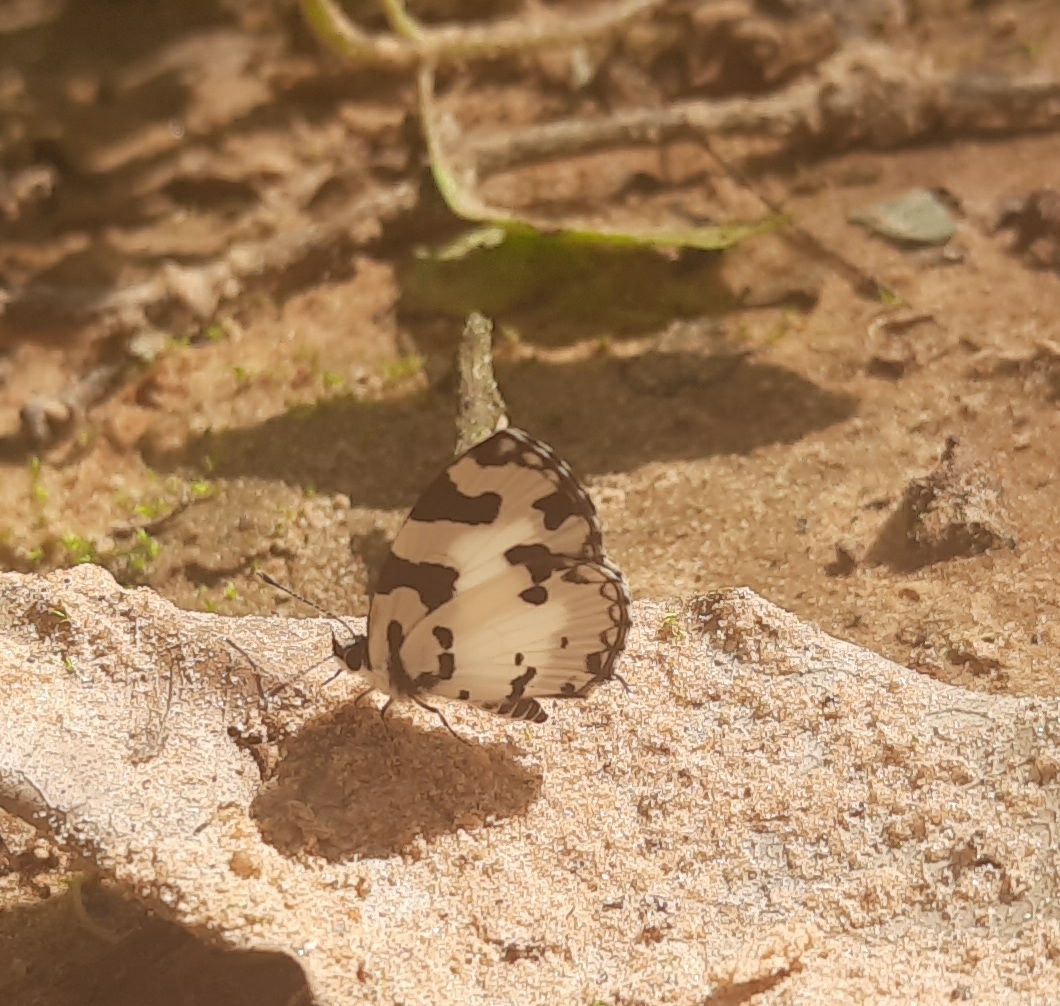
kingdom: Animalia
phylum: Arthropoda
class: Insecta
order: Lepidoptera
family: Lycaenidae
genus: Caleta
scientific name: Caleta decidia
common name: Angled pierrot
